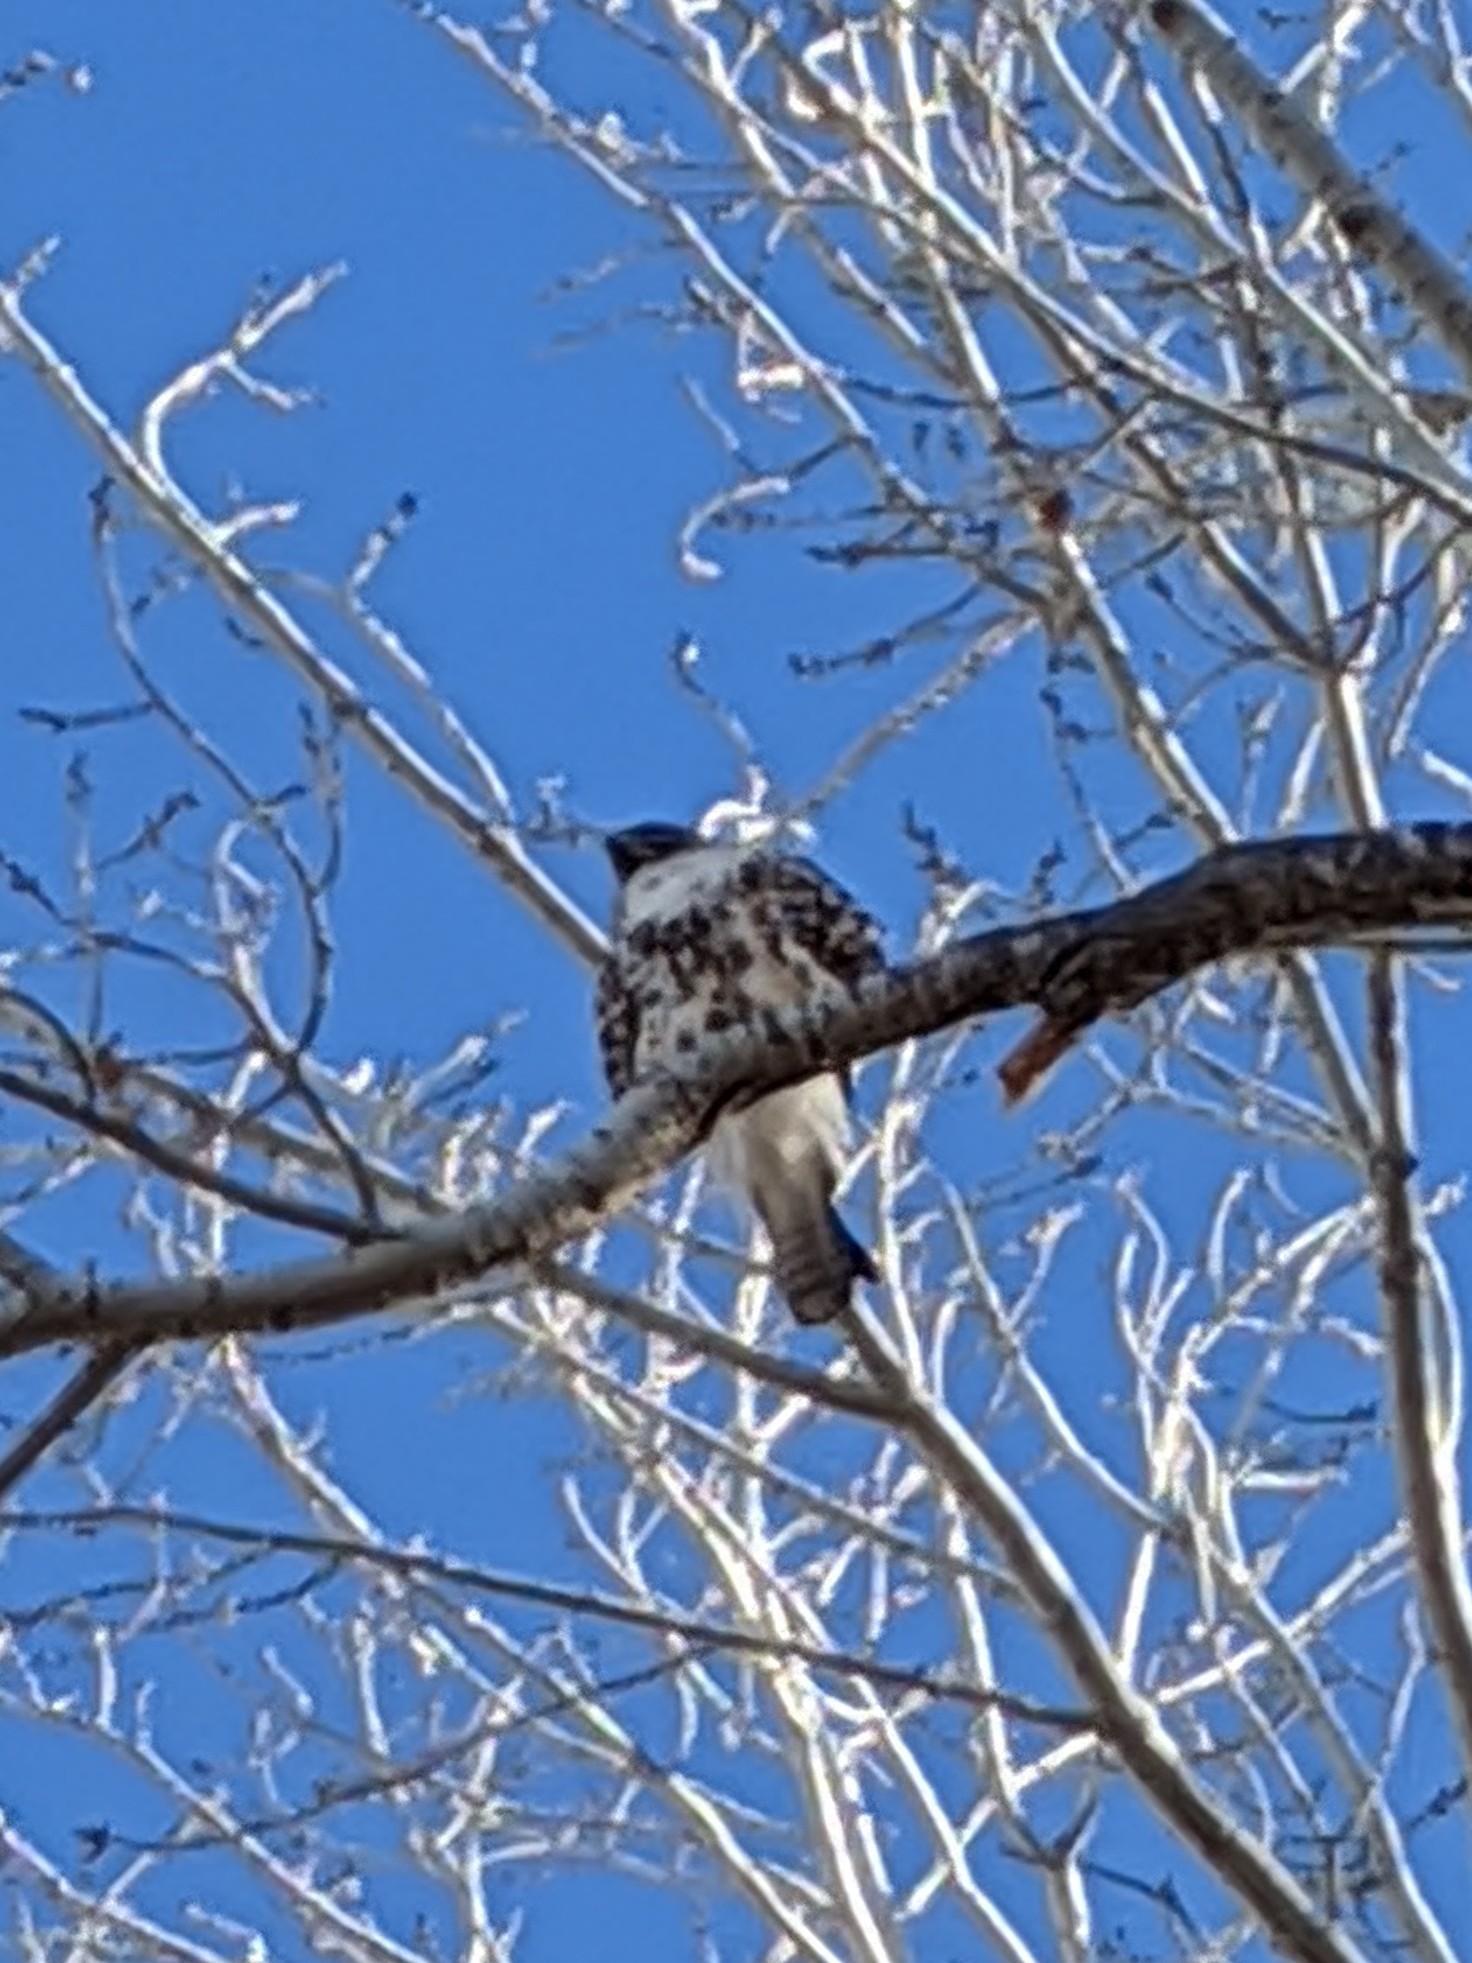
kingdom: Animalia
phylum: Chordata
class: Aves
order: Accipitriformes
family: Accipitridae
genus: Buteo
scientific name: Buteo jamaicensis
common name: Red-tailed hawk
